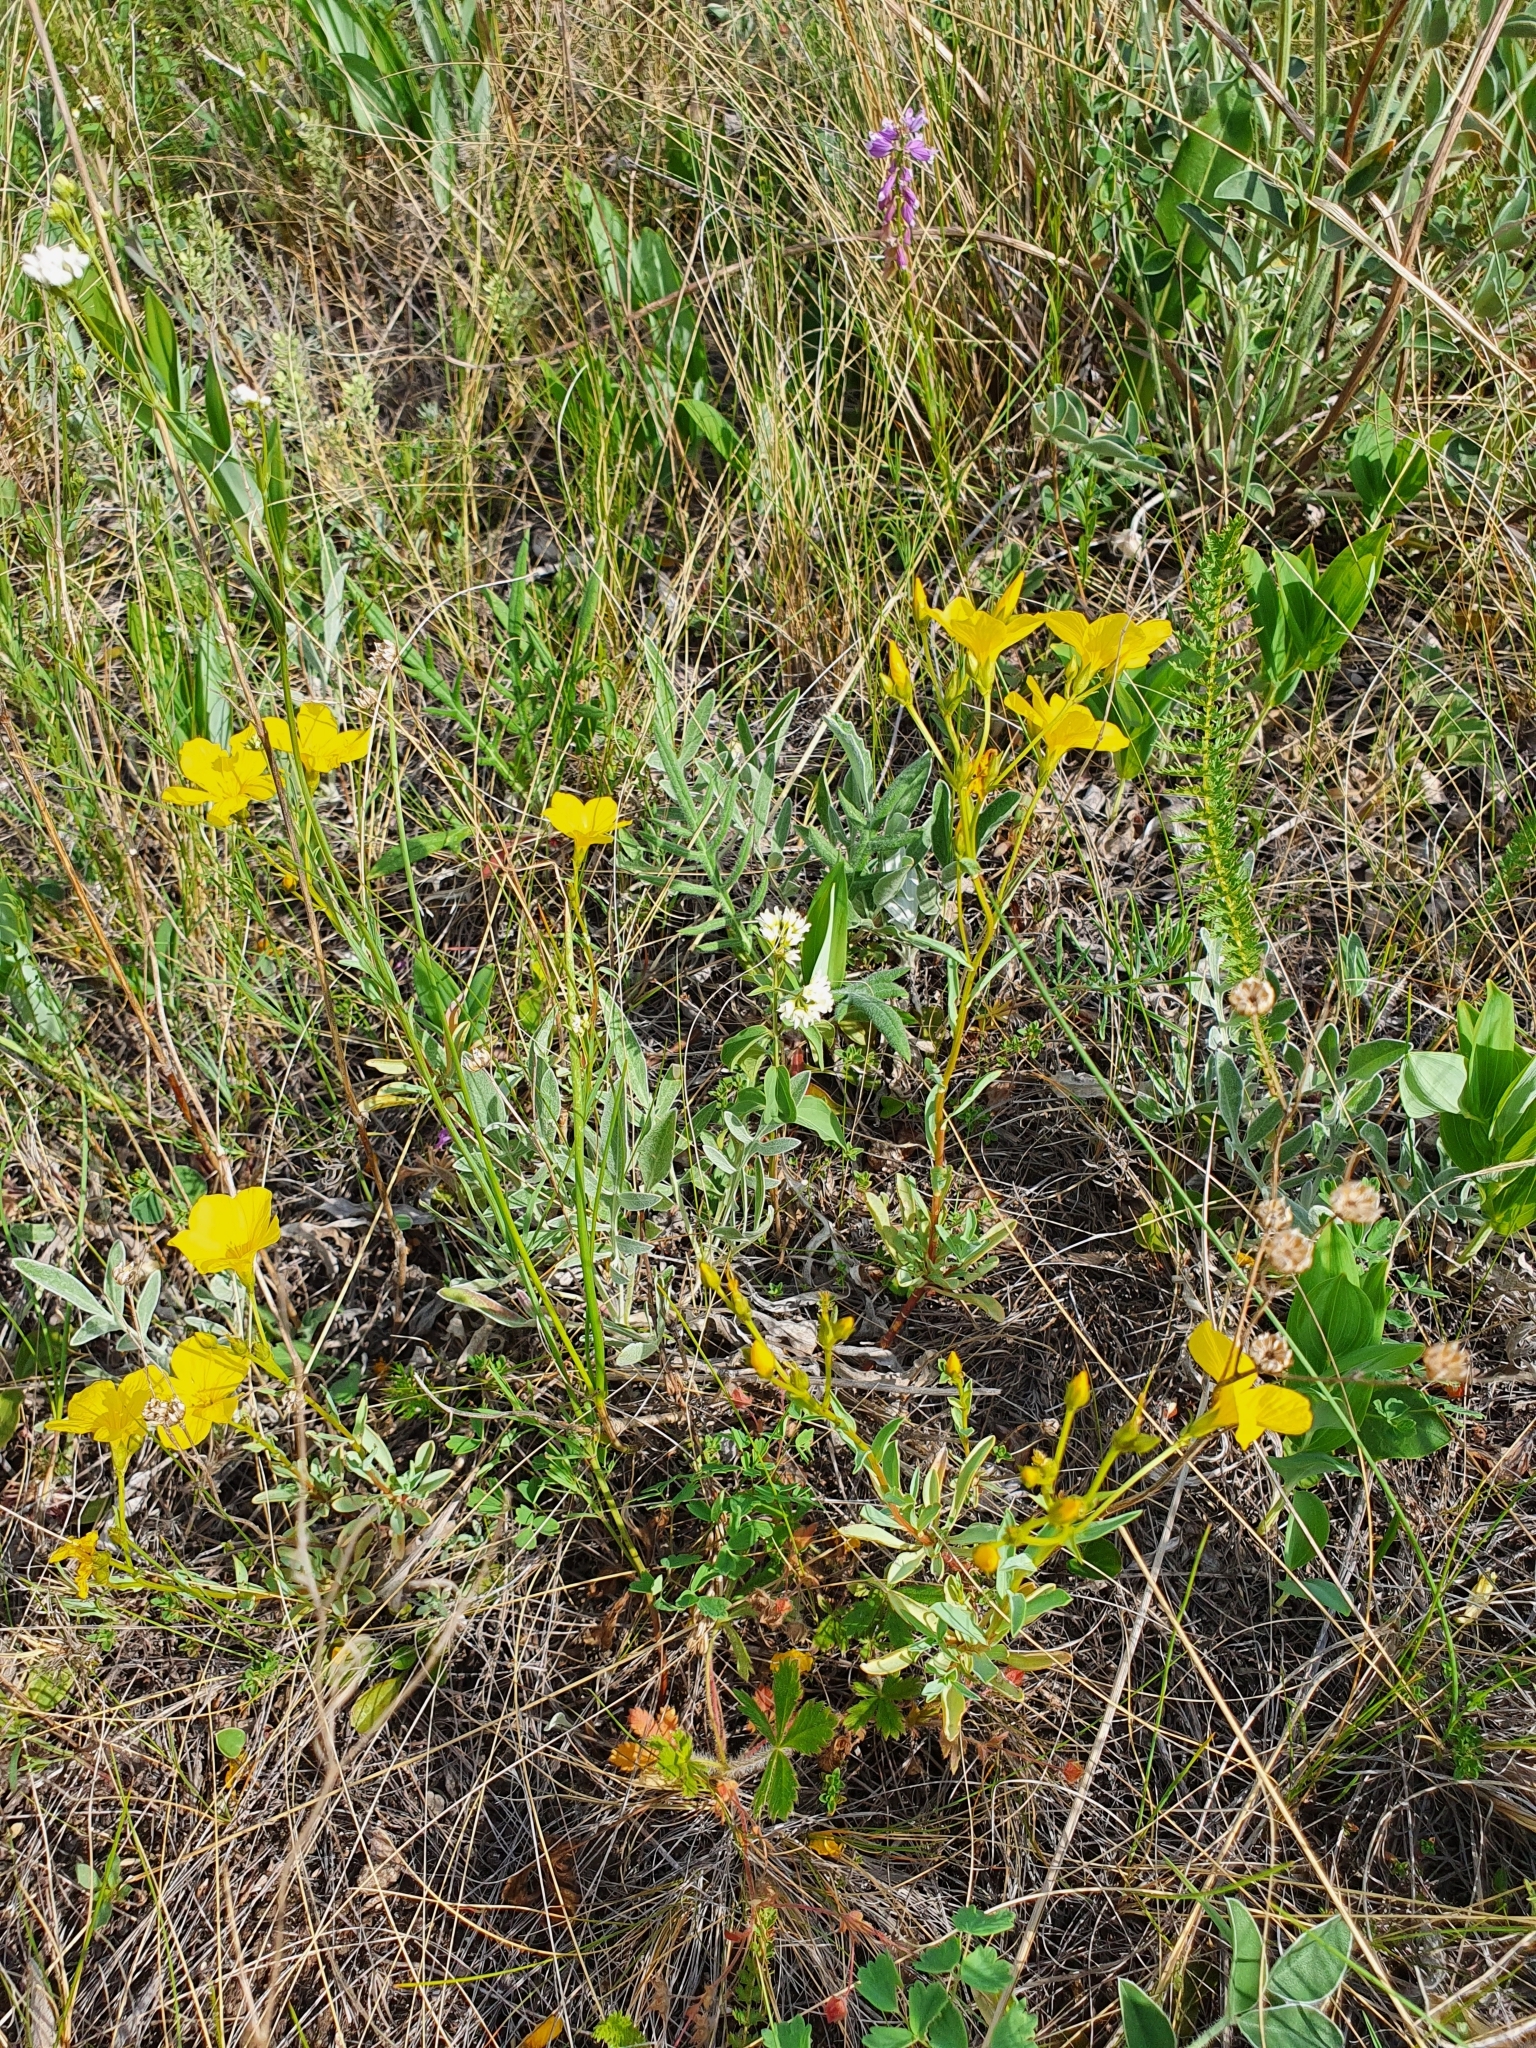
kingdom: Plantae
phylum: Tracheophyta
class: Magnoliopsida
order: Malpighiales
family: Linaceae
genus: Linum
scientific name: Linum ucranicum
